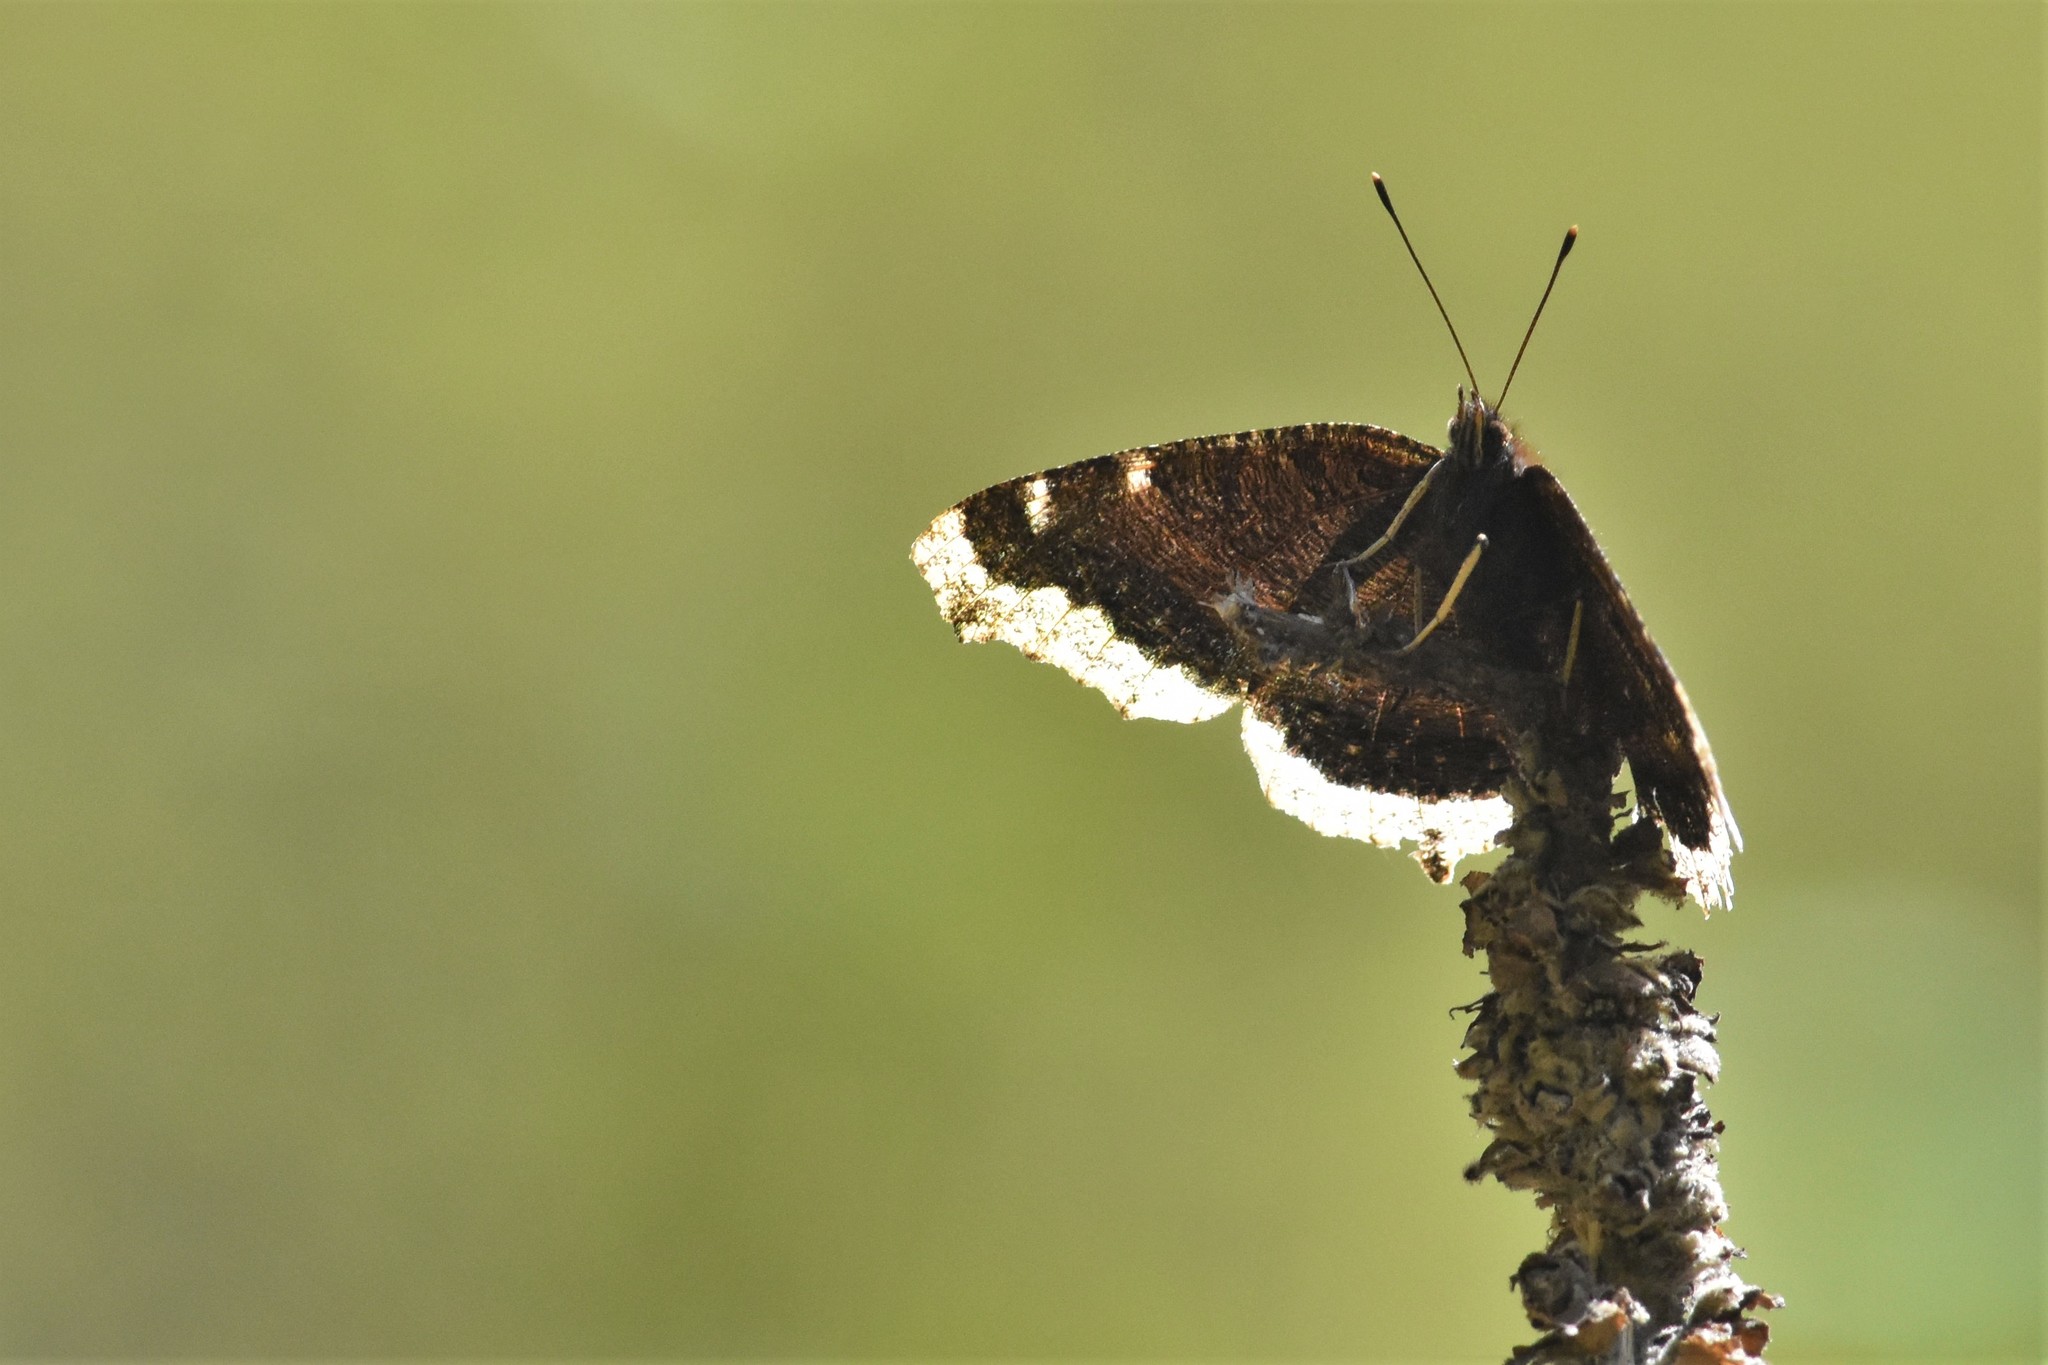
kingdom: Animalia
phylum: Arthropoda
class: Insecta
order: Lepidoptera
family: Nymphalidae
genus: Nymphalis
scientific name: Nymphalis antiopa
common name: Camberwell beauty
